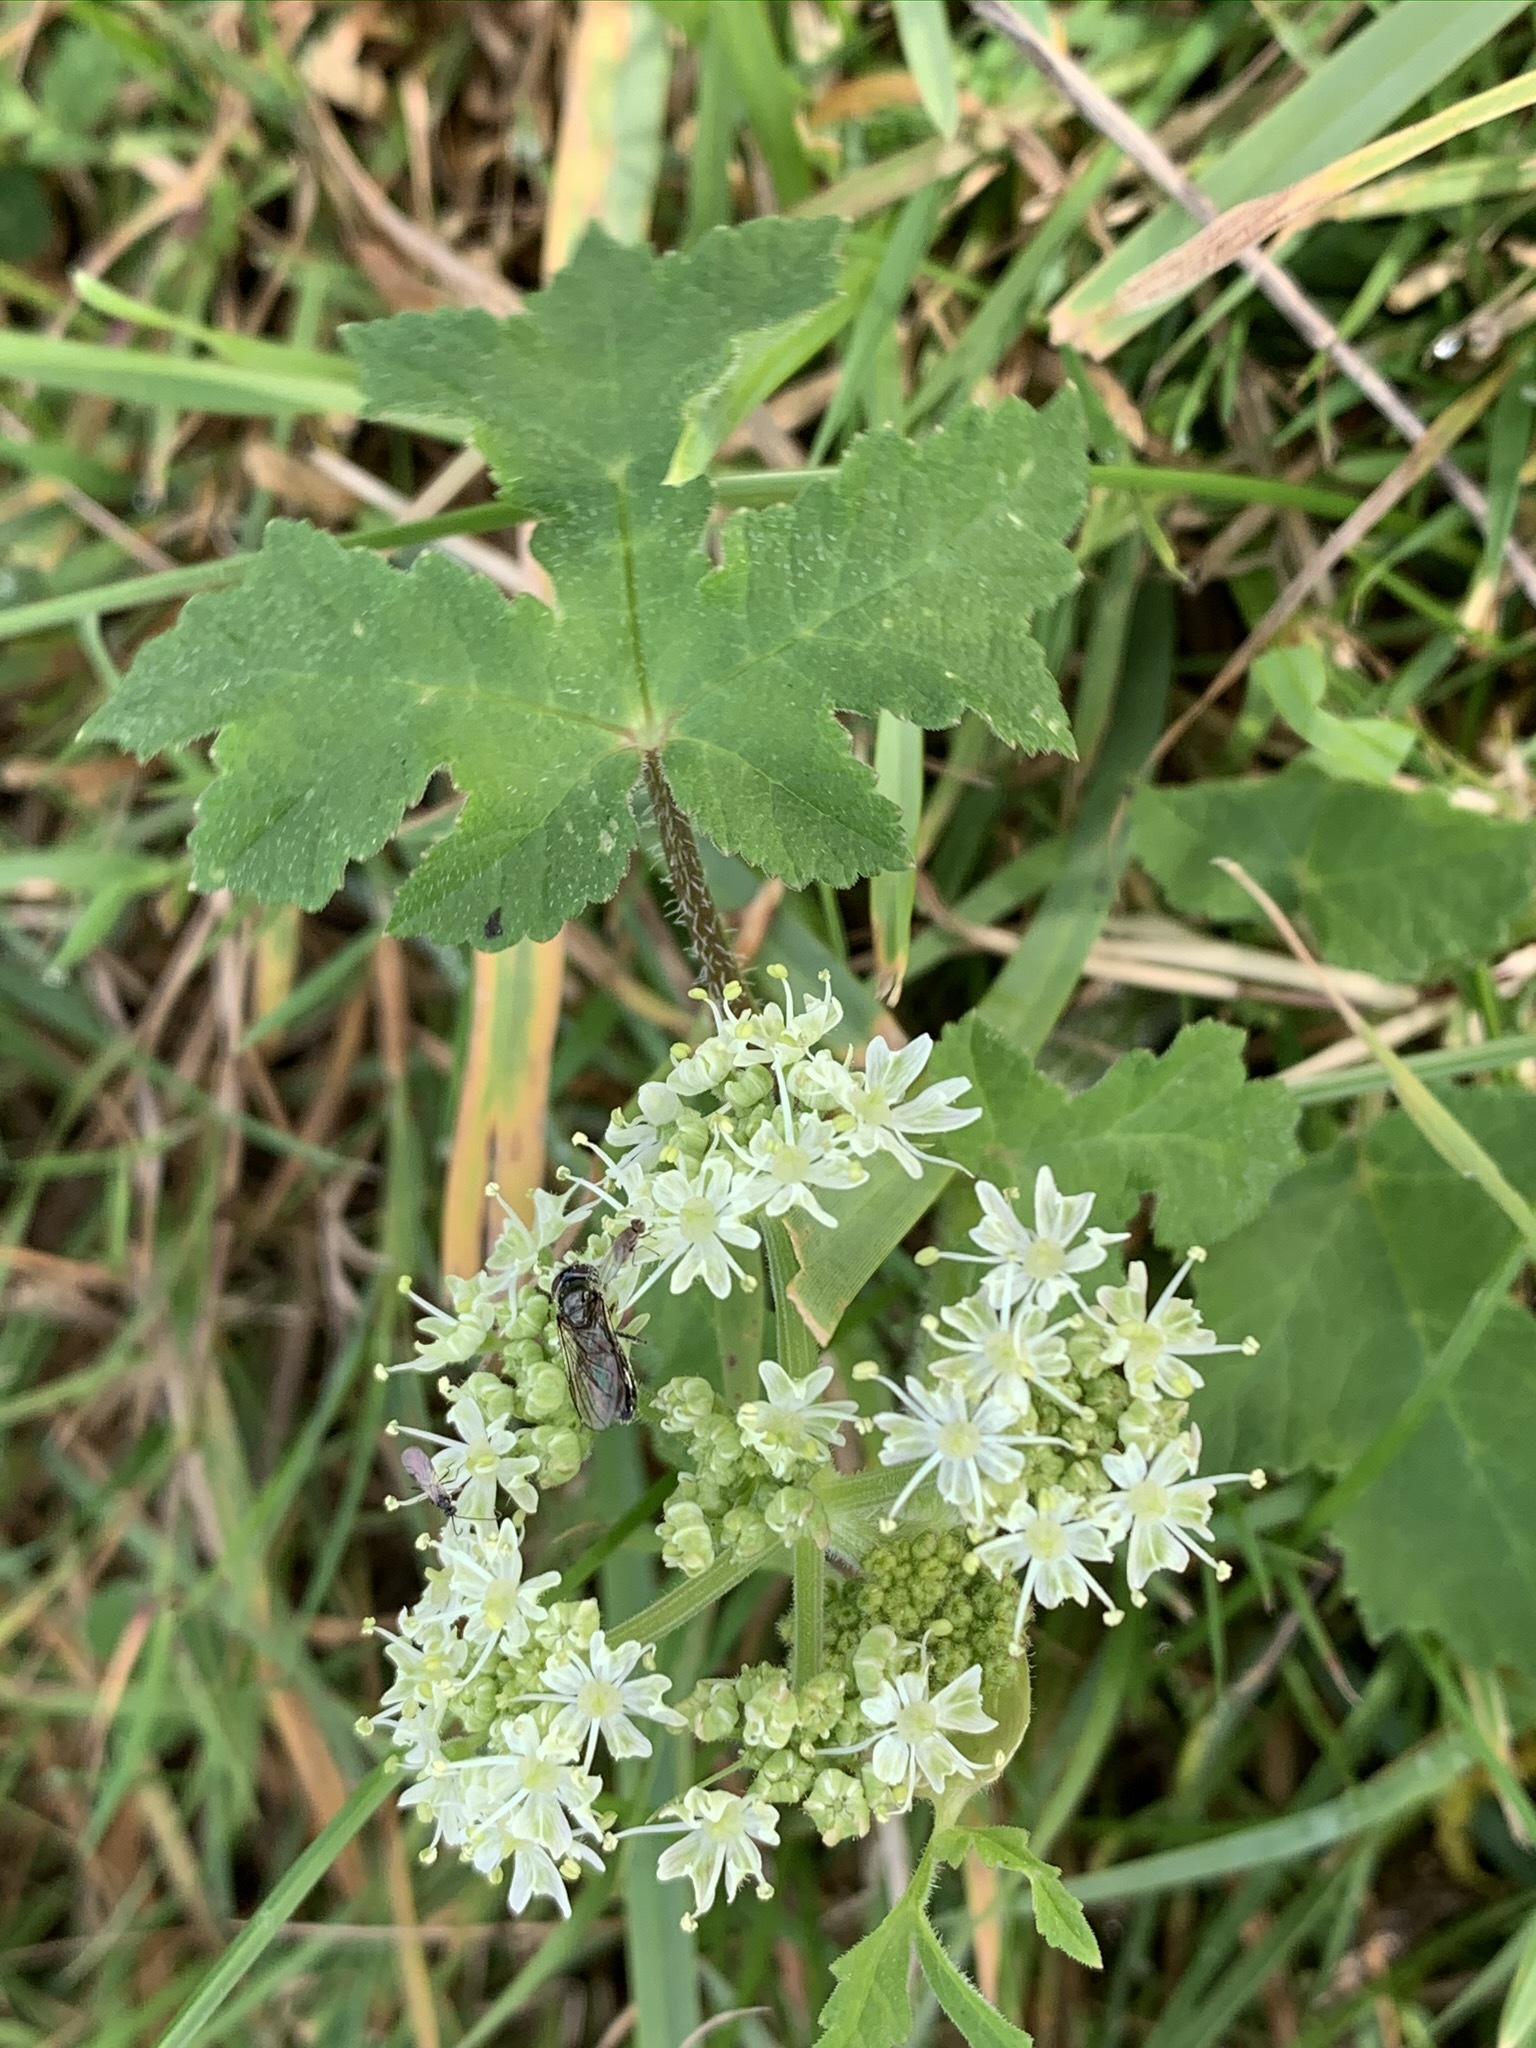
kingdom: Plantae
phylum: Tracheophyta
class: Magnoliopsida
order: Apiales
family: Apiaceae
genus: Heracleum
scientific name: Heracleum sphondylium
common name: Hogweed
